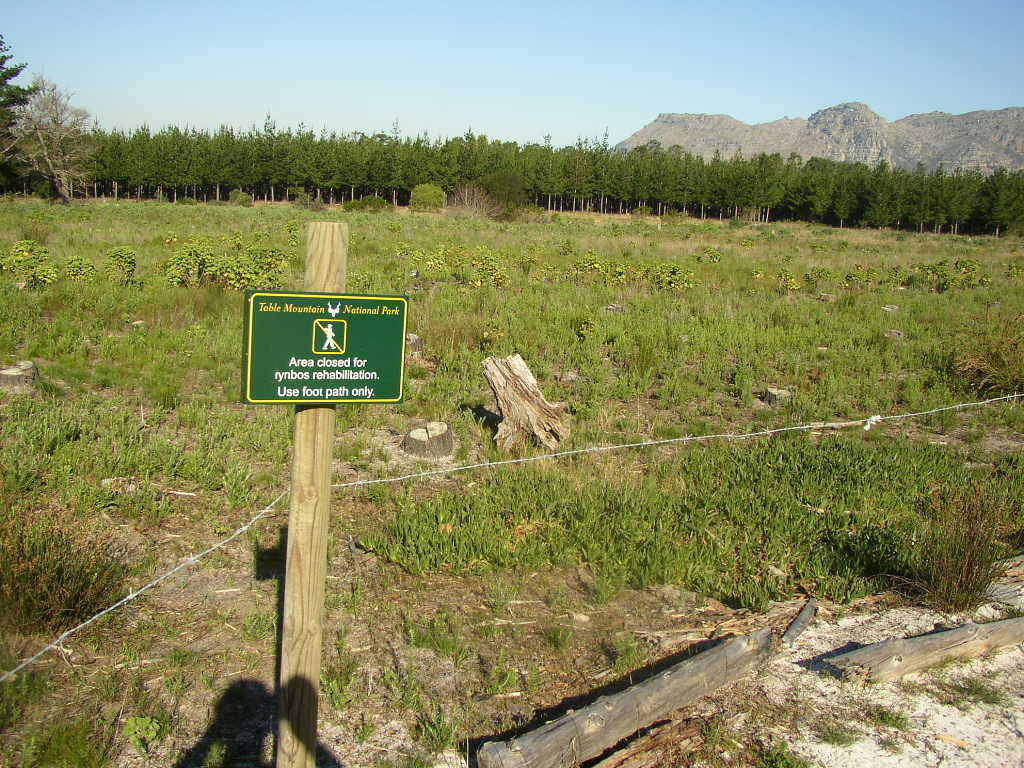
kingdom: Plantae
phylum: Tracheophyta
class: Magnoliopsida
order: Caryophyllales
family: Aizoaceae
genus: Carpobrotus
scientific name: Carpobrotus edulis
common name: Hottentot-fig
